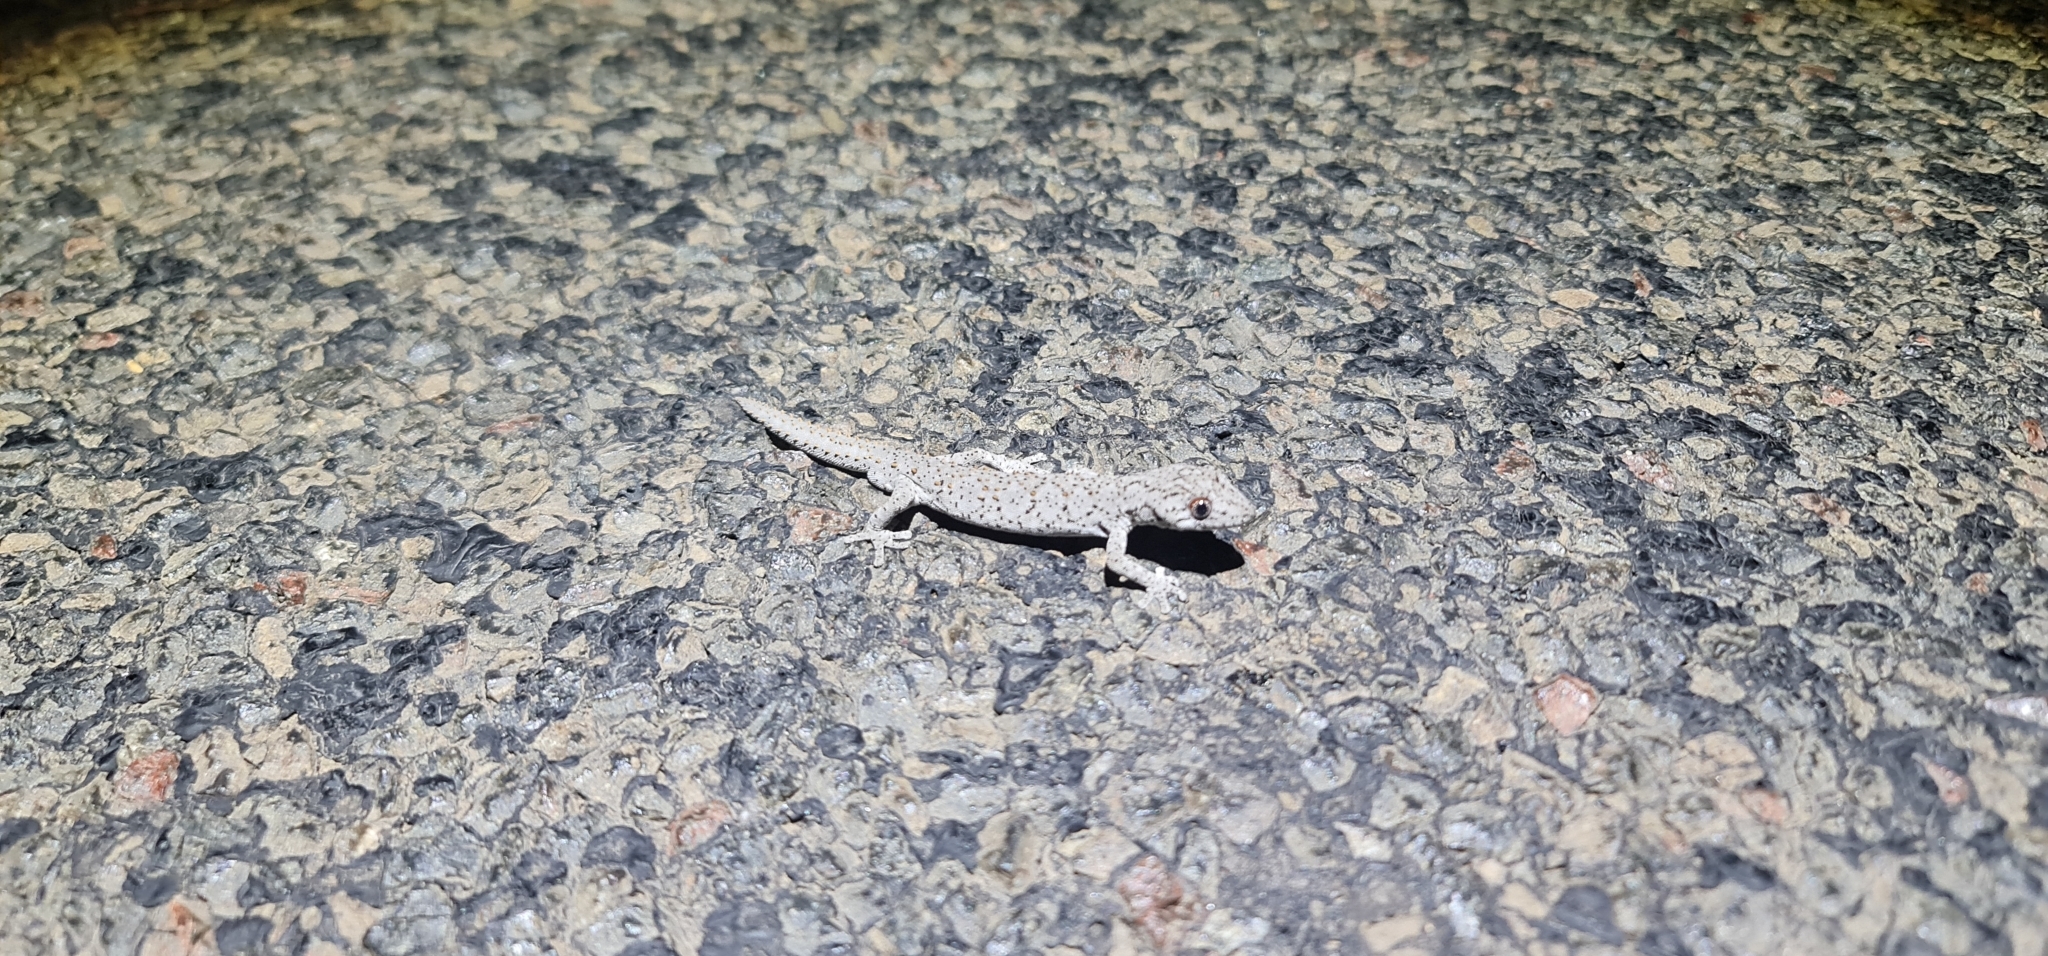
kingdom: Animalia
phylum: Chordata
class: Squamata
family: Diplodactylidae
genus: Strophurus
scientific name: Strophurus williamsi
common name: Eastern spiny-tailed gecko
